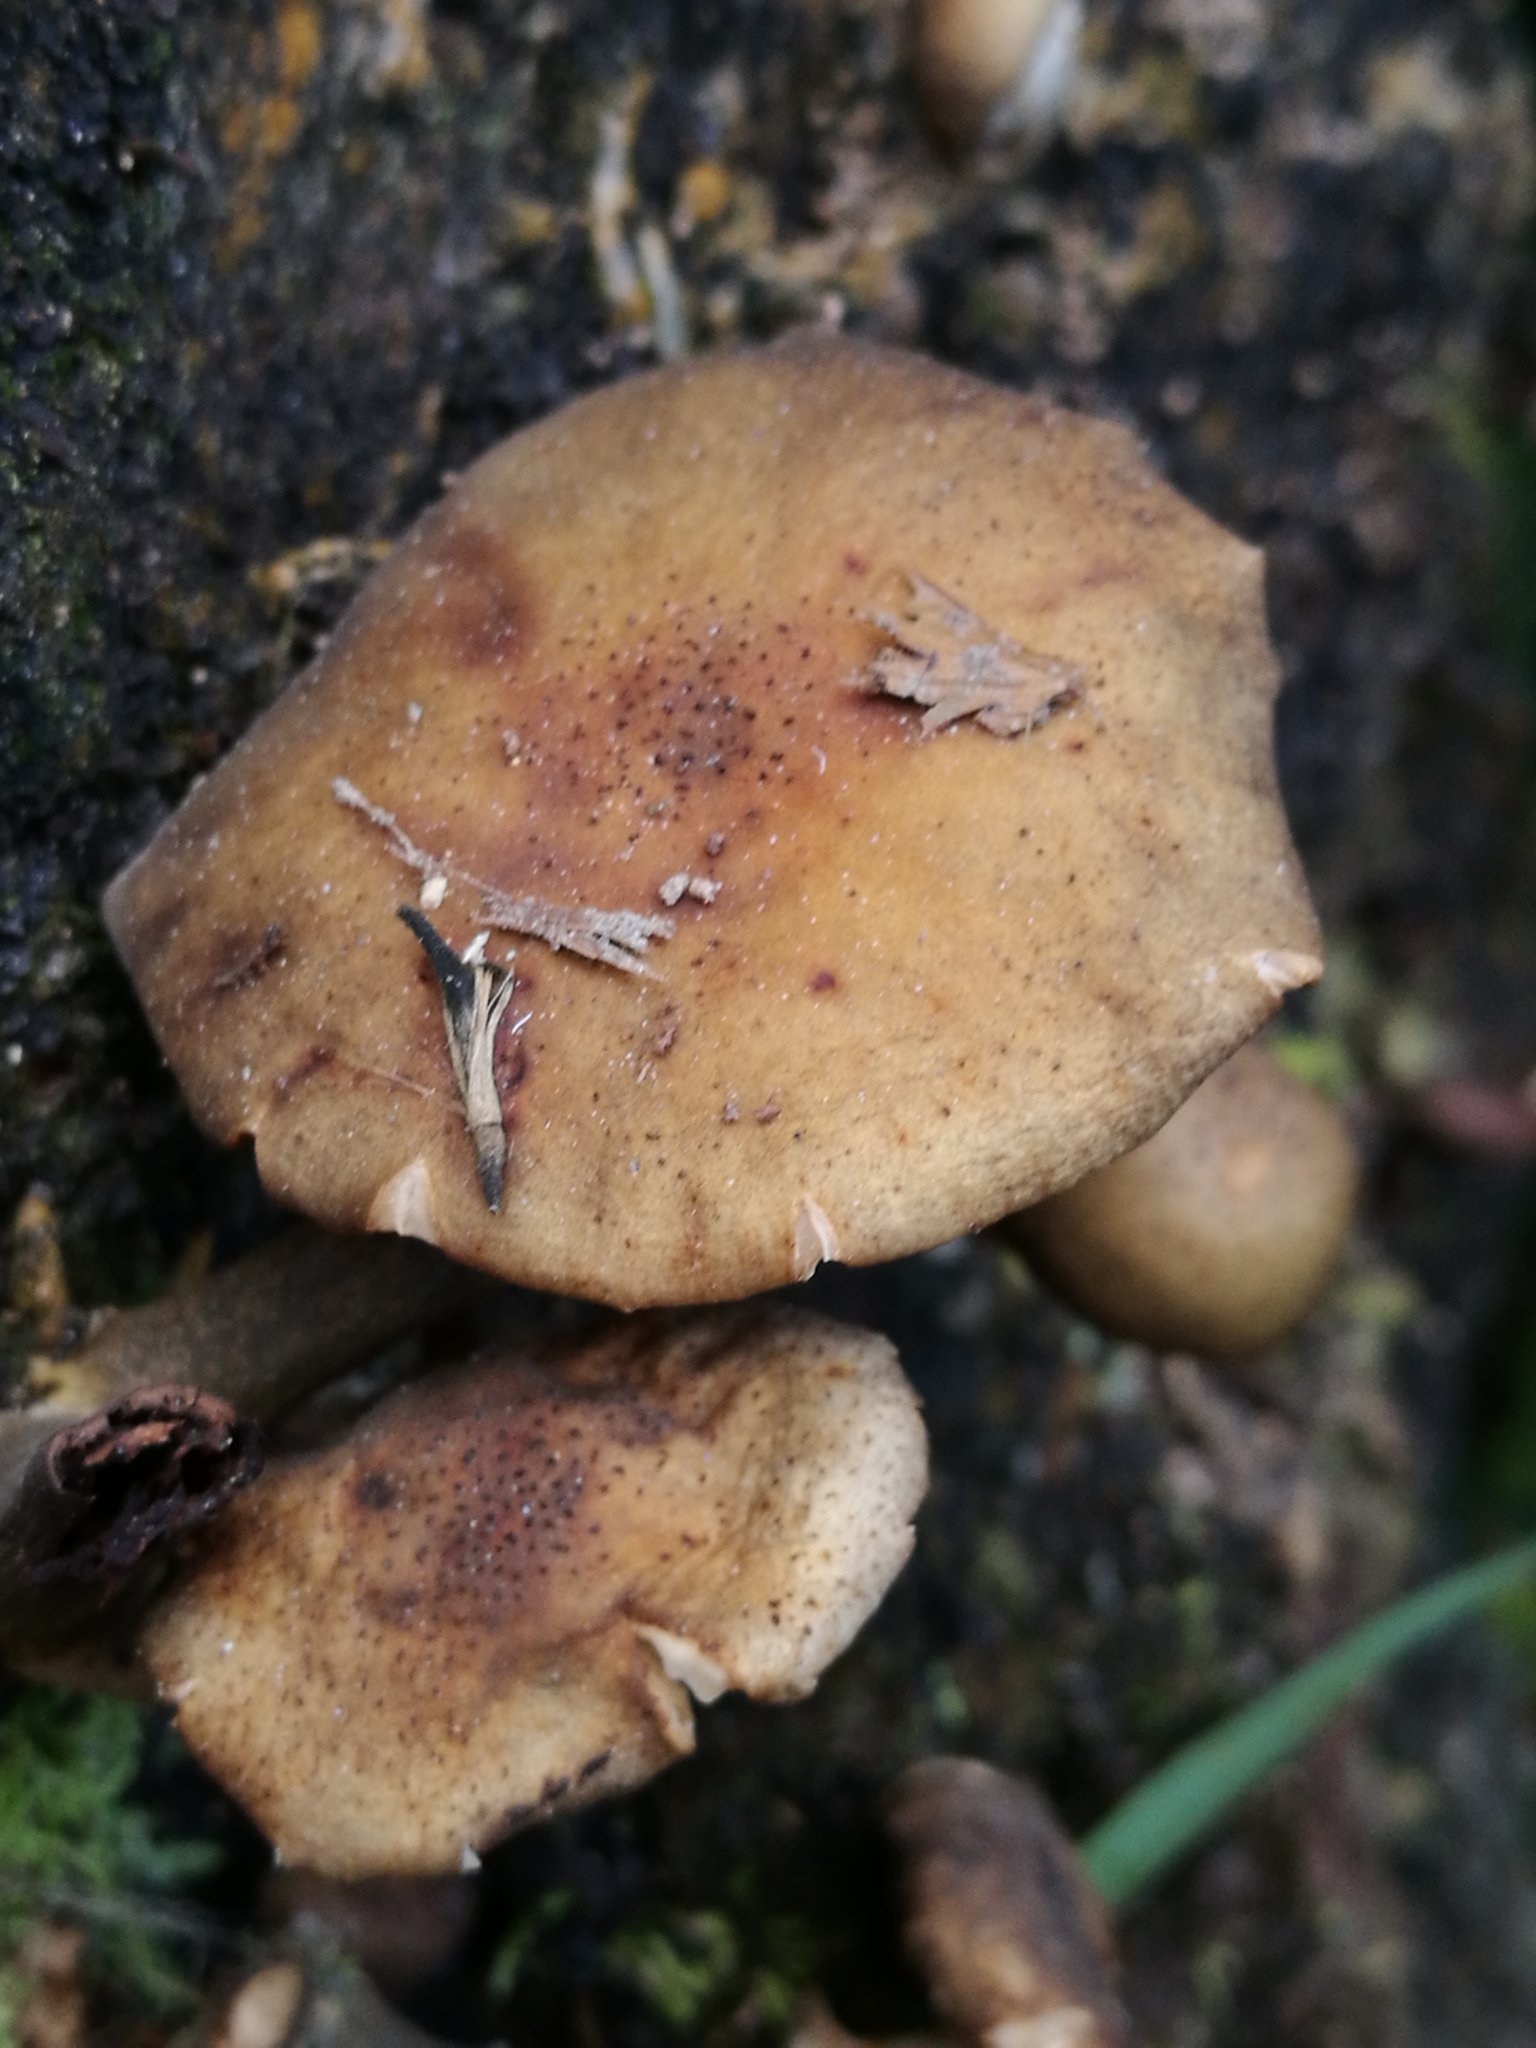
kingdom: Fungi
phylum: Basidiomycota
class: Agaricomycetes
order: Agaricales
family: Physalacriaceae
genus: Armillaria
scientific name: Armillaria limonea
